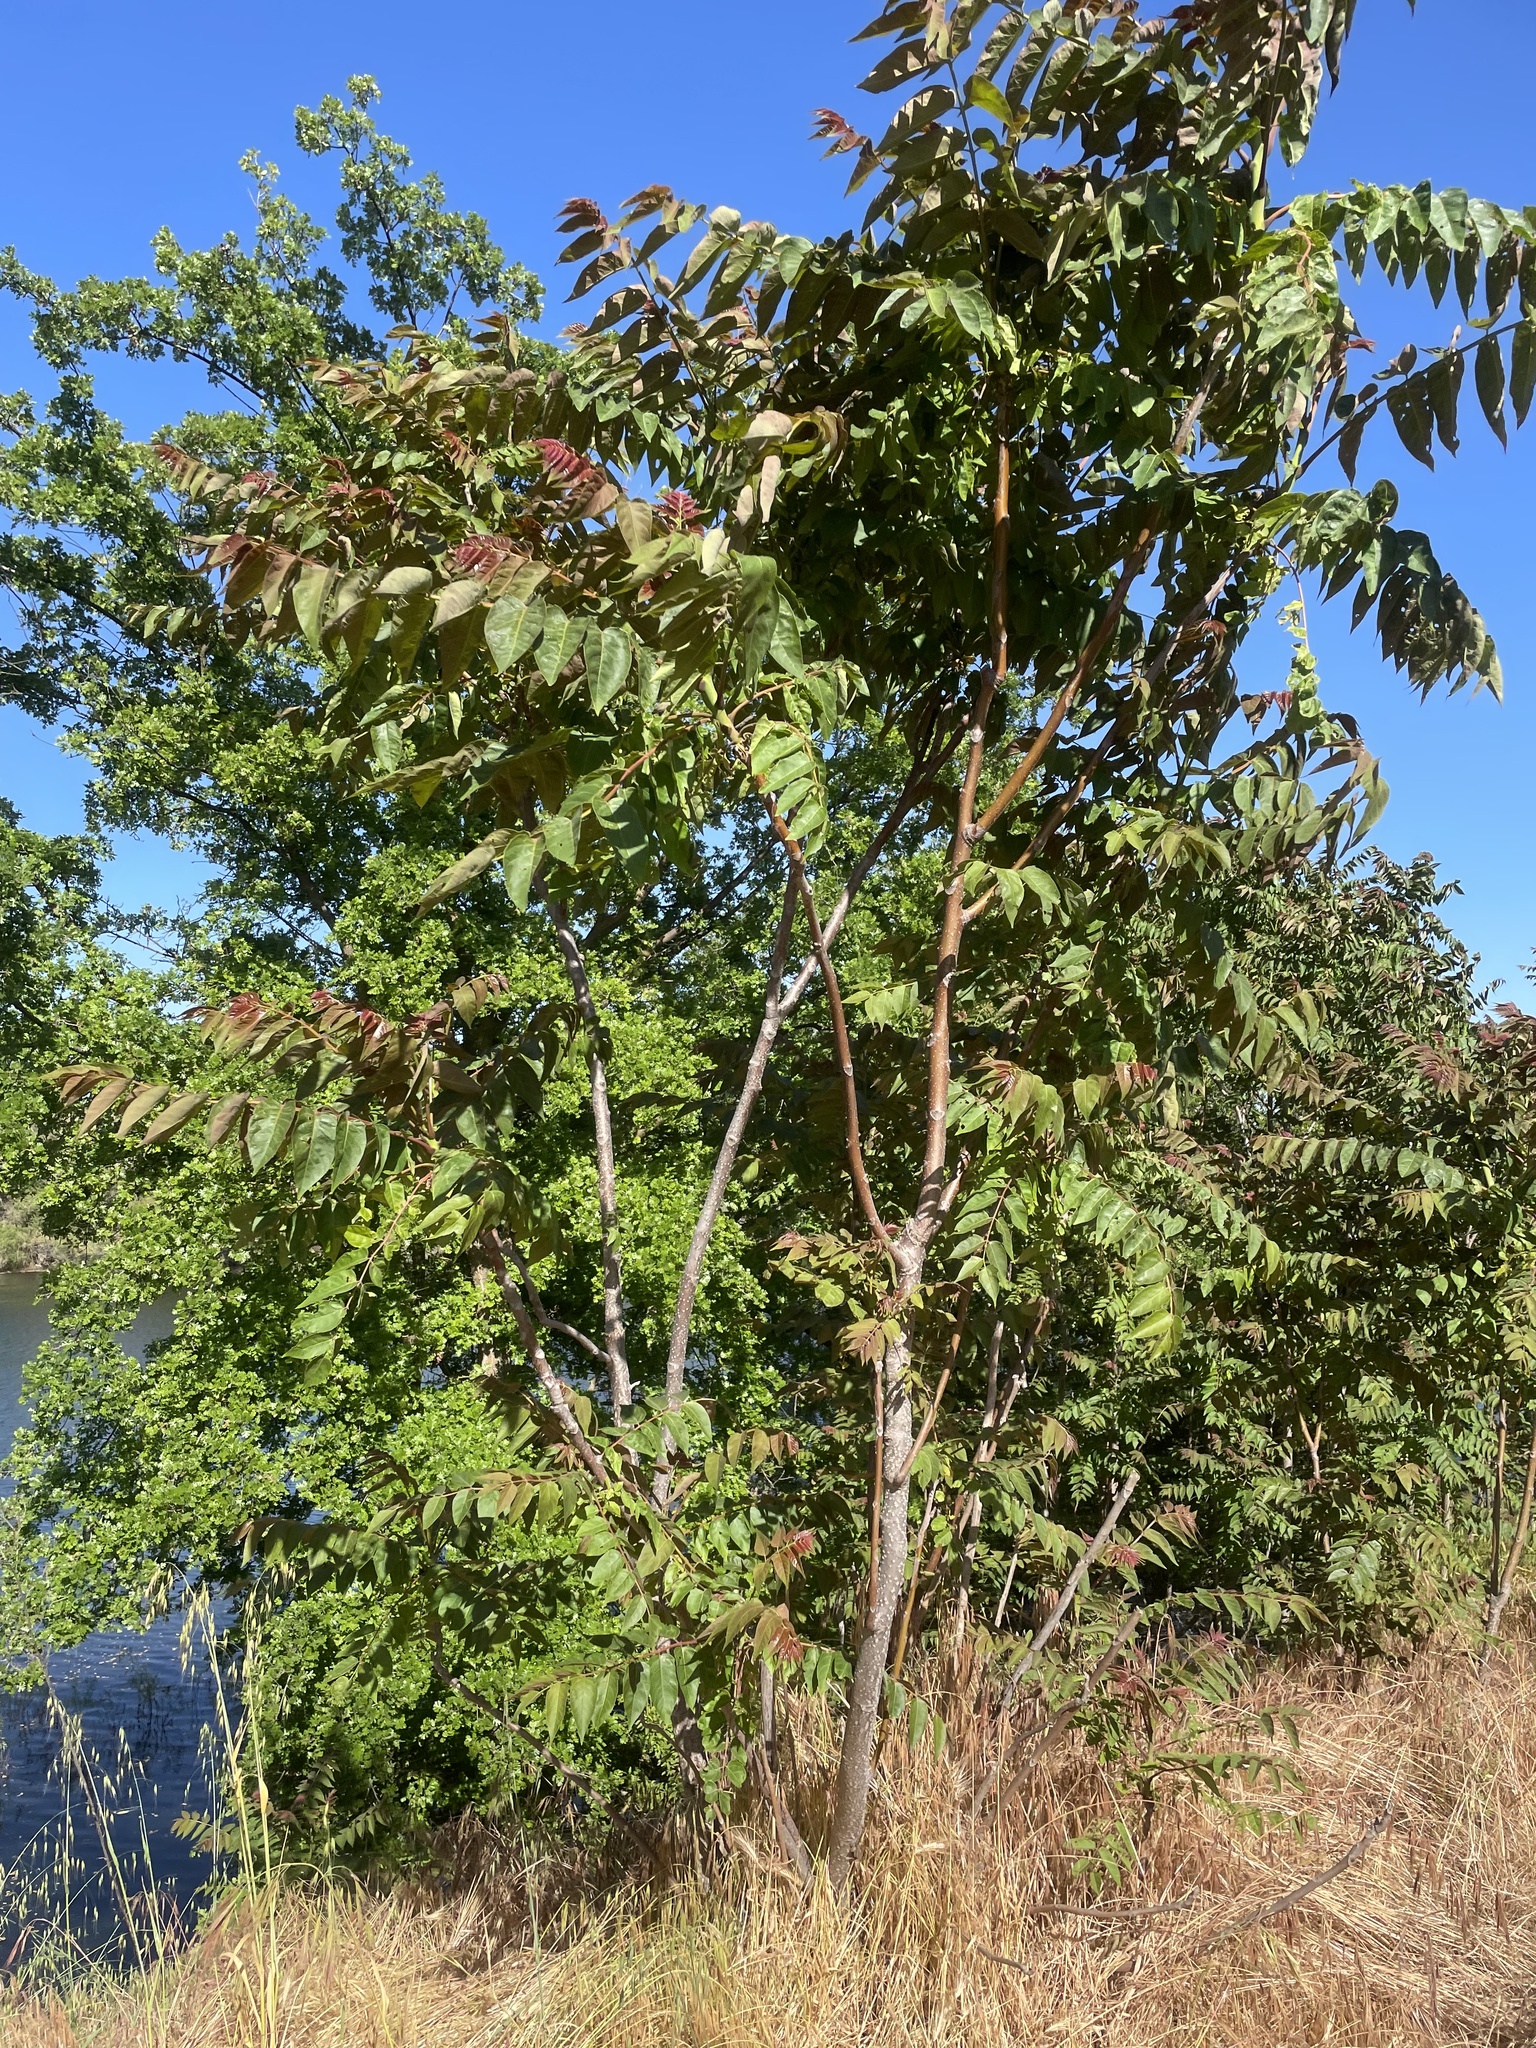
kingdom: Plantae
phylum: Tracheophyta
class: Magnoliopsida
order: Sapindales
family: Simaroubaceae
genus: Ailanthus
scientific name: Ailanthus altissima
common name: Tree-of-heaven
